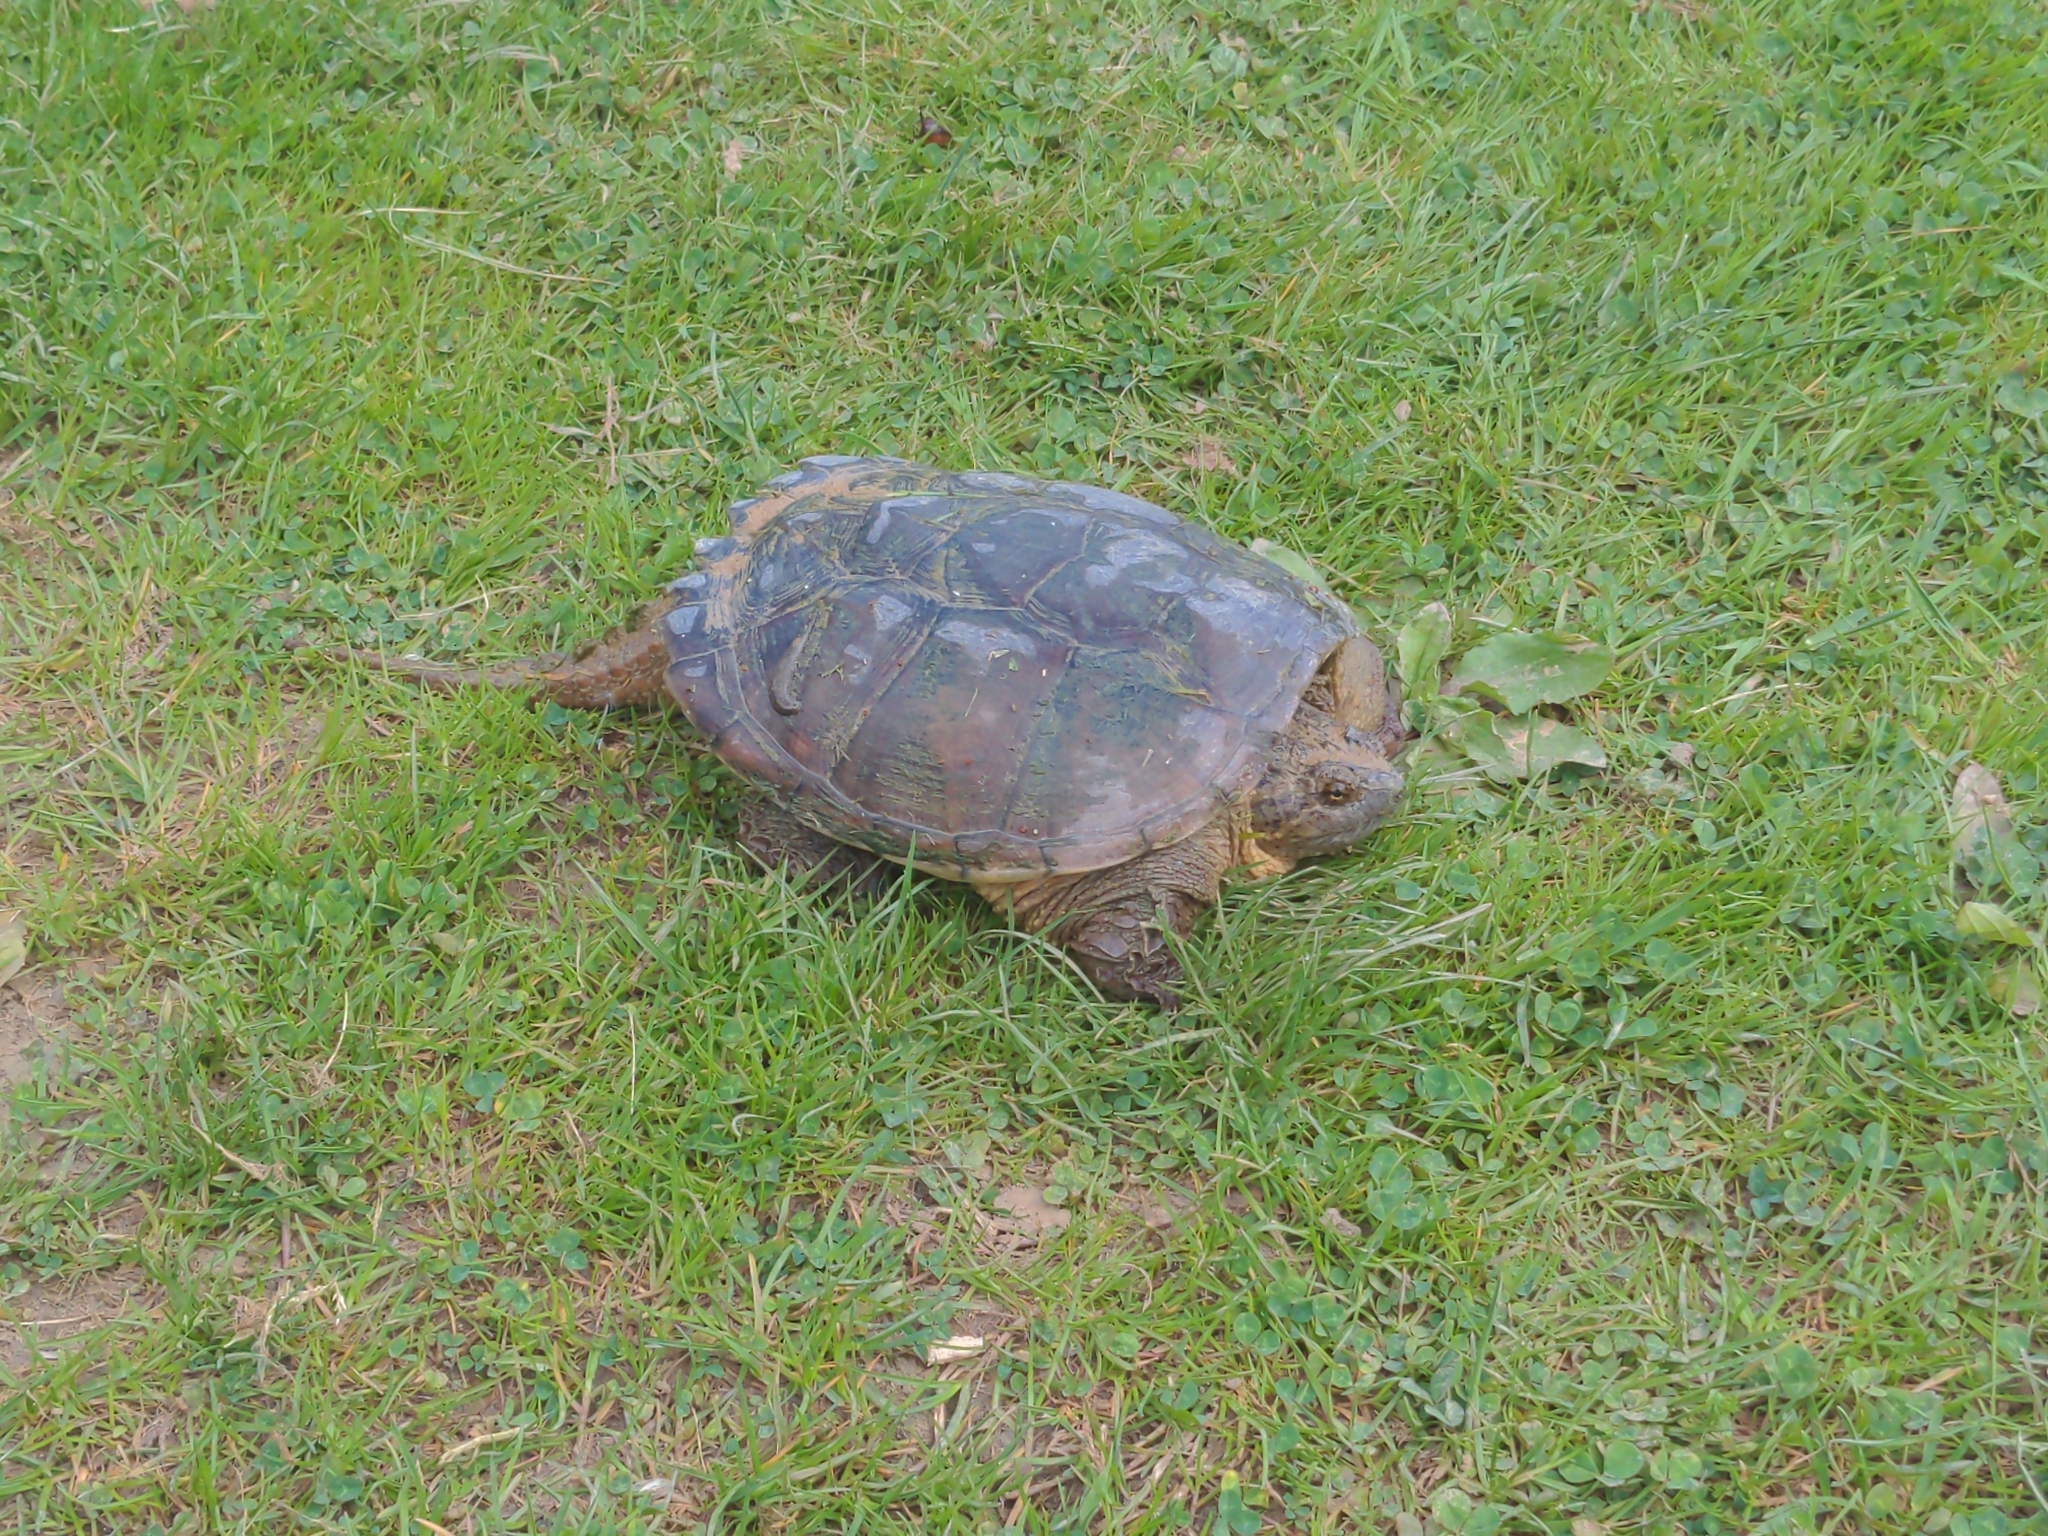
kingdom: Animalia
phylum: Chordata
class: Testudines
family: Chelydridae
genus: Chelydra
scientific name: Chelydra serpentina
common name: Common snapping turtle
